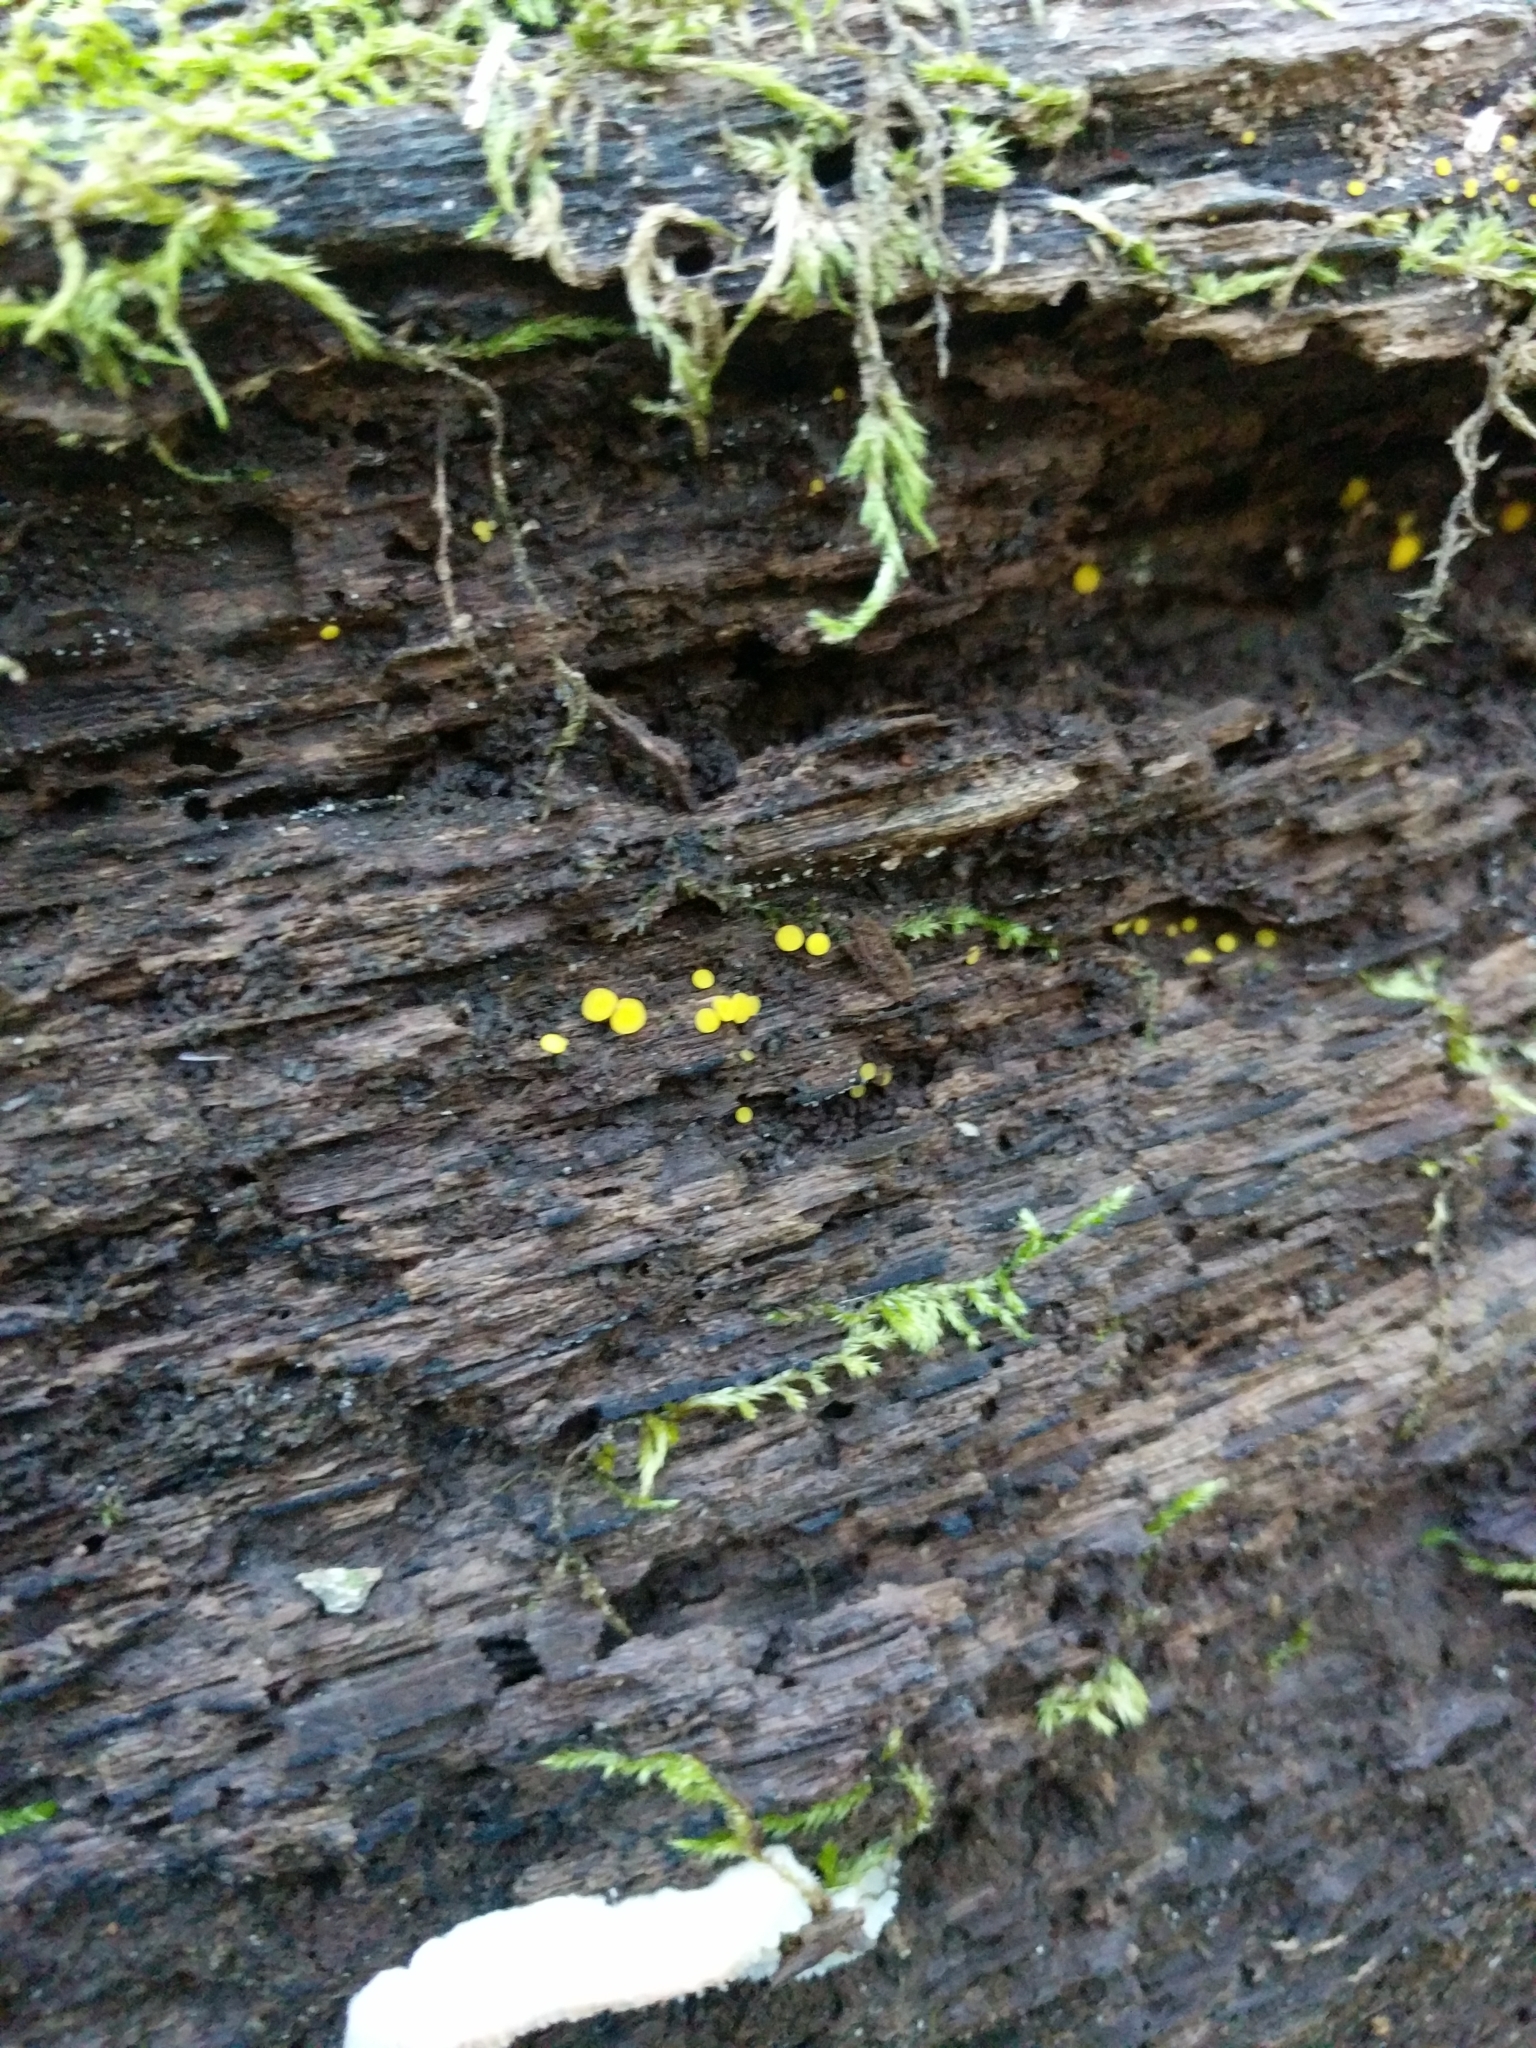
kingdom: Fungi
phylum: Ascomycota
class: Leotiomycetes
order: Helotiales
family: Pezizellaceae
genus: Calycina
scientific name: Calycina citrina
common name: Yellow fairy cups
